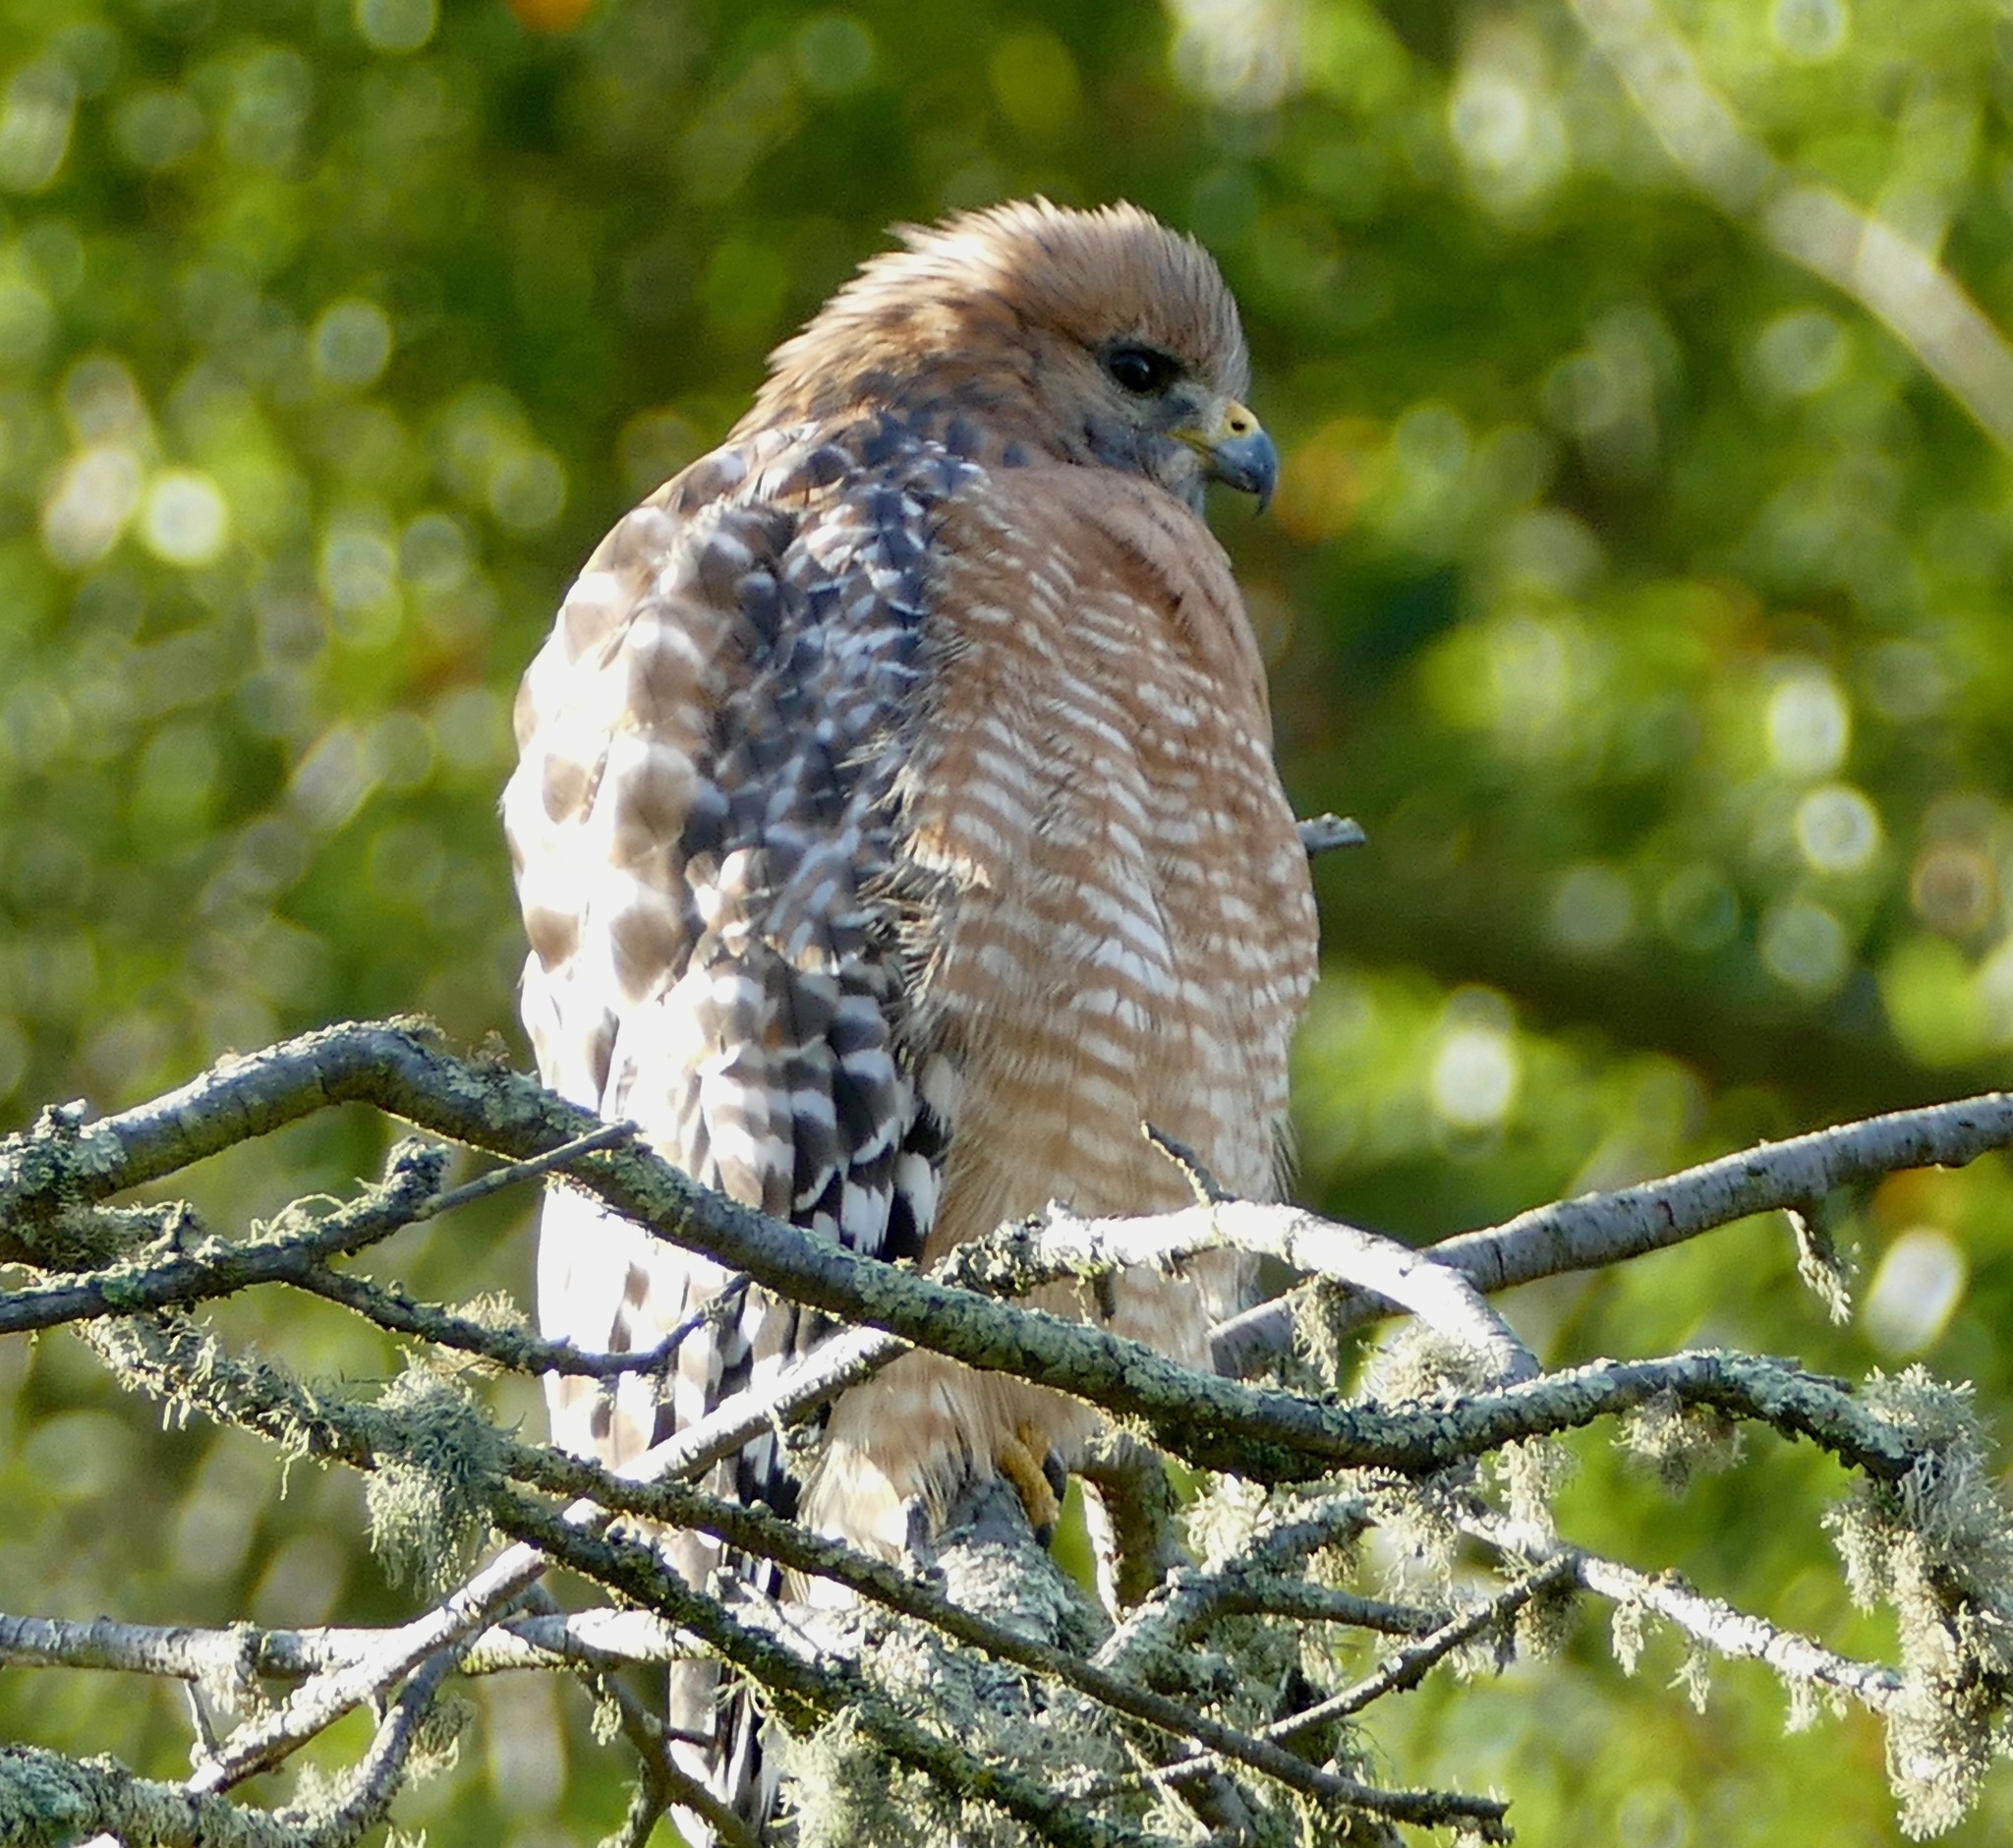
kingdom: Animalia
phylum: Chordata
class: Aves
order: Accipitriformes
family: Accipitridae
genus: Buteo
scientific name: Buteo lineatus
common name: Red-shouldered hawk
